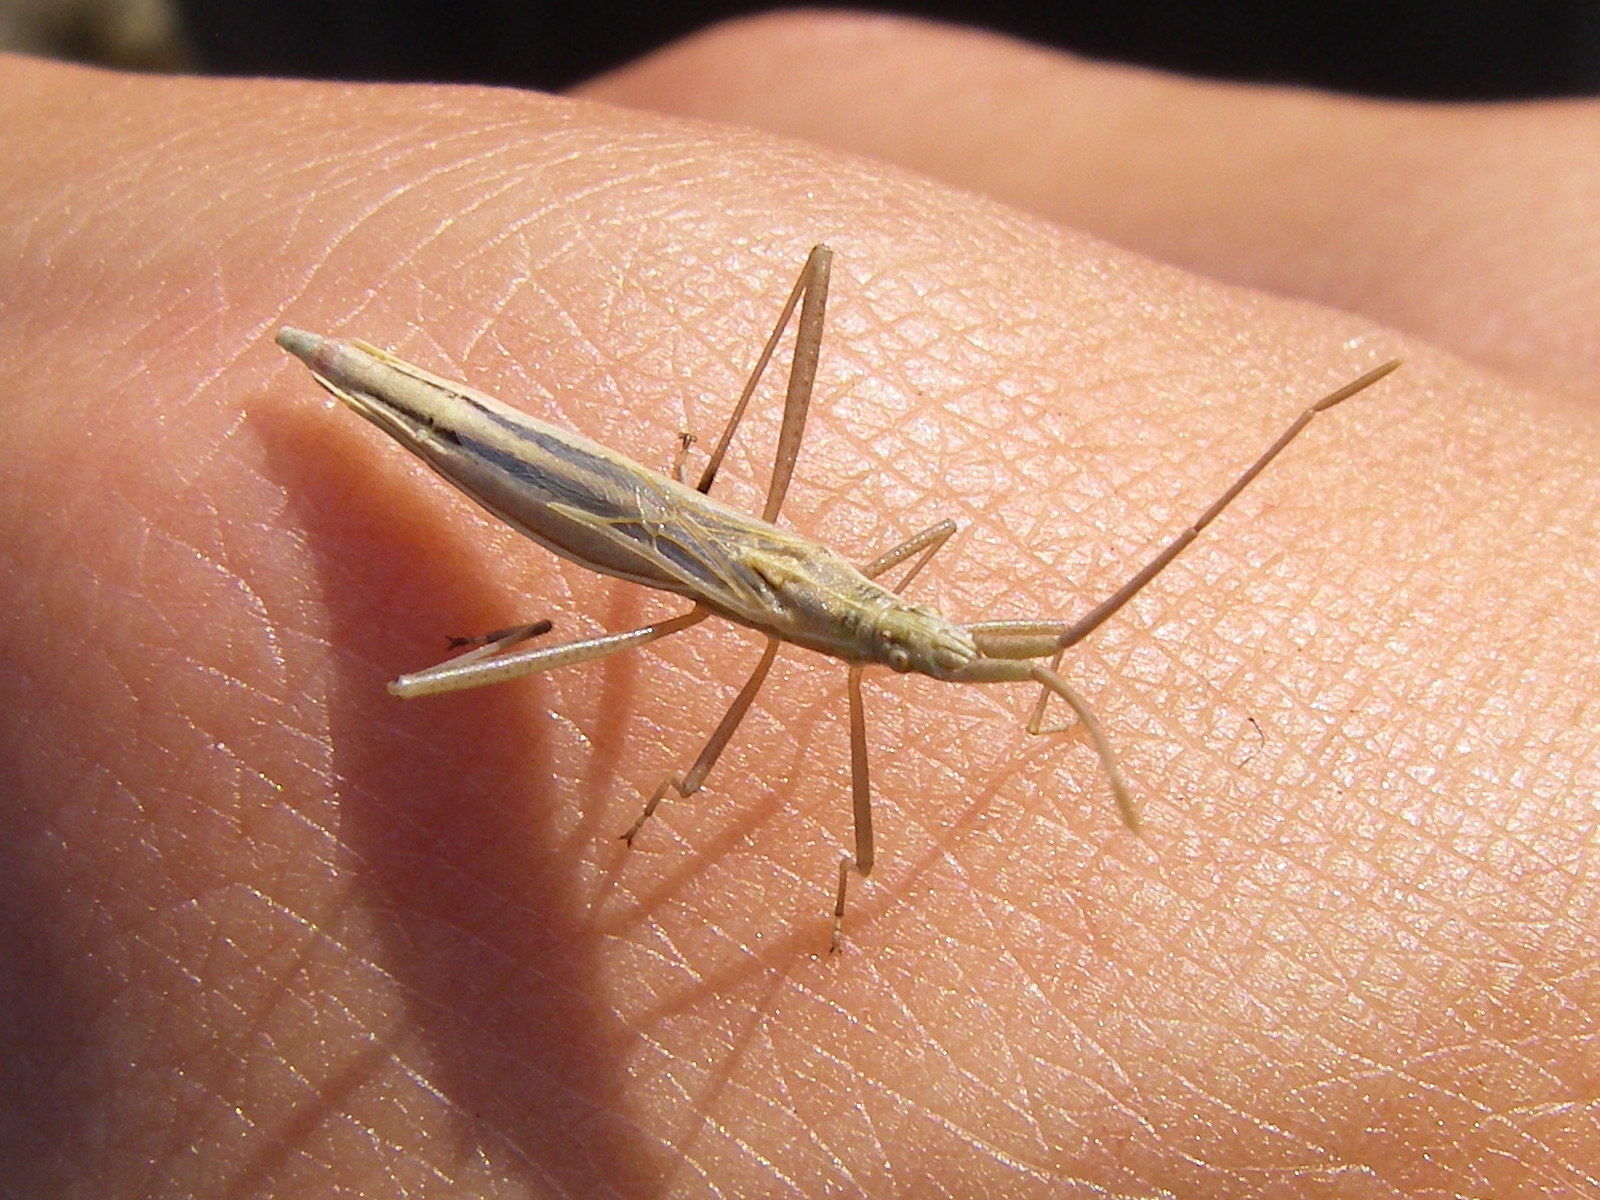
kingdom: Animalia
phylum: Arthropoda
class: Insecta
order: Hemiptera
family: Rhopalidae
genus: Chorosoma
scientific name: Chorosoma schillingii
